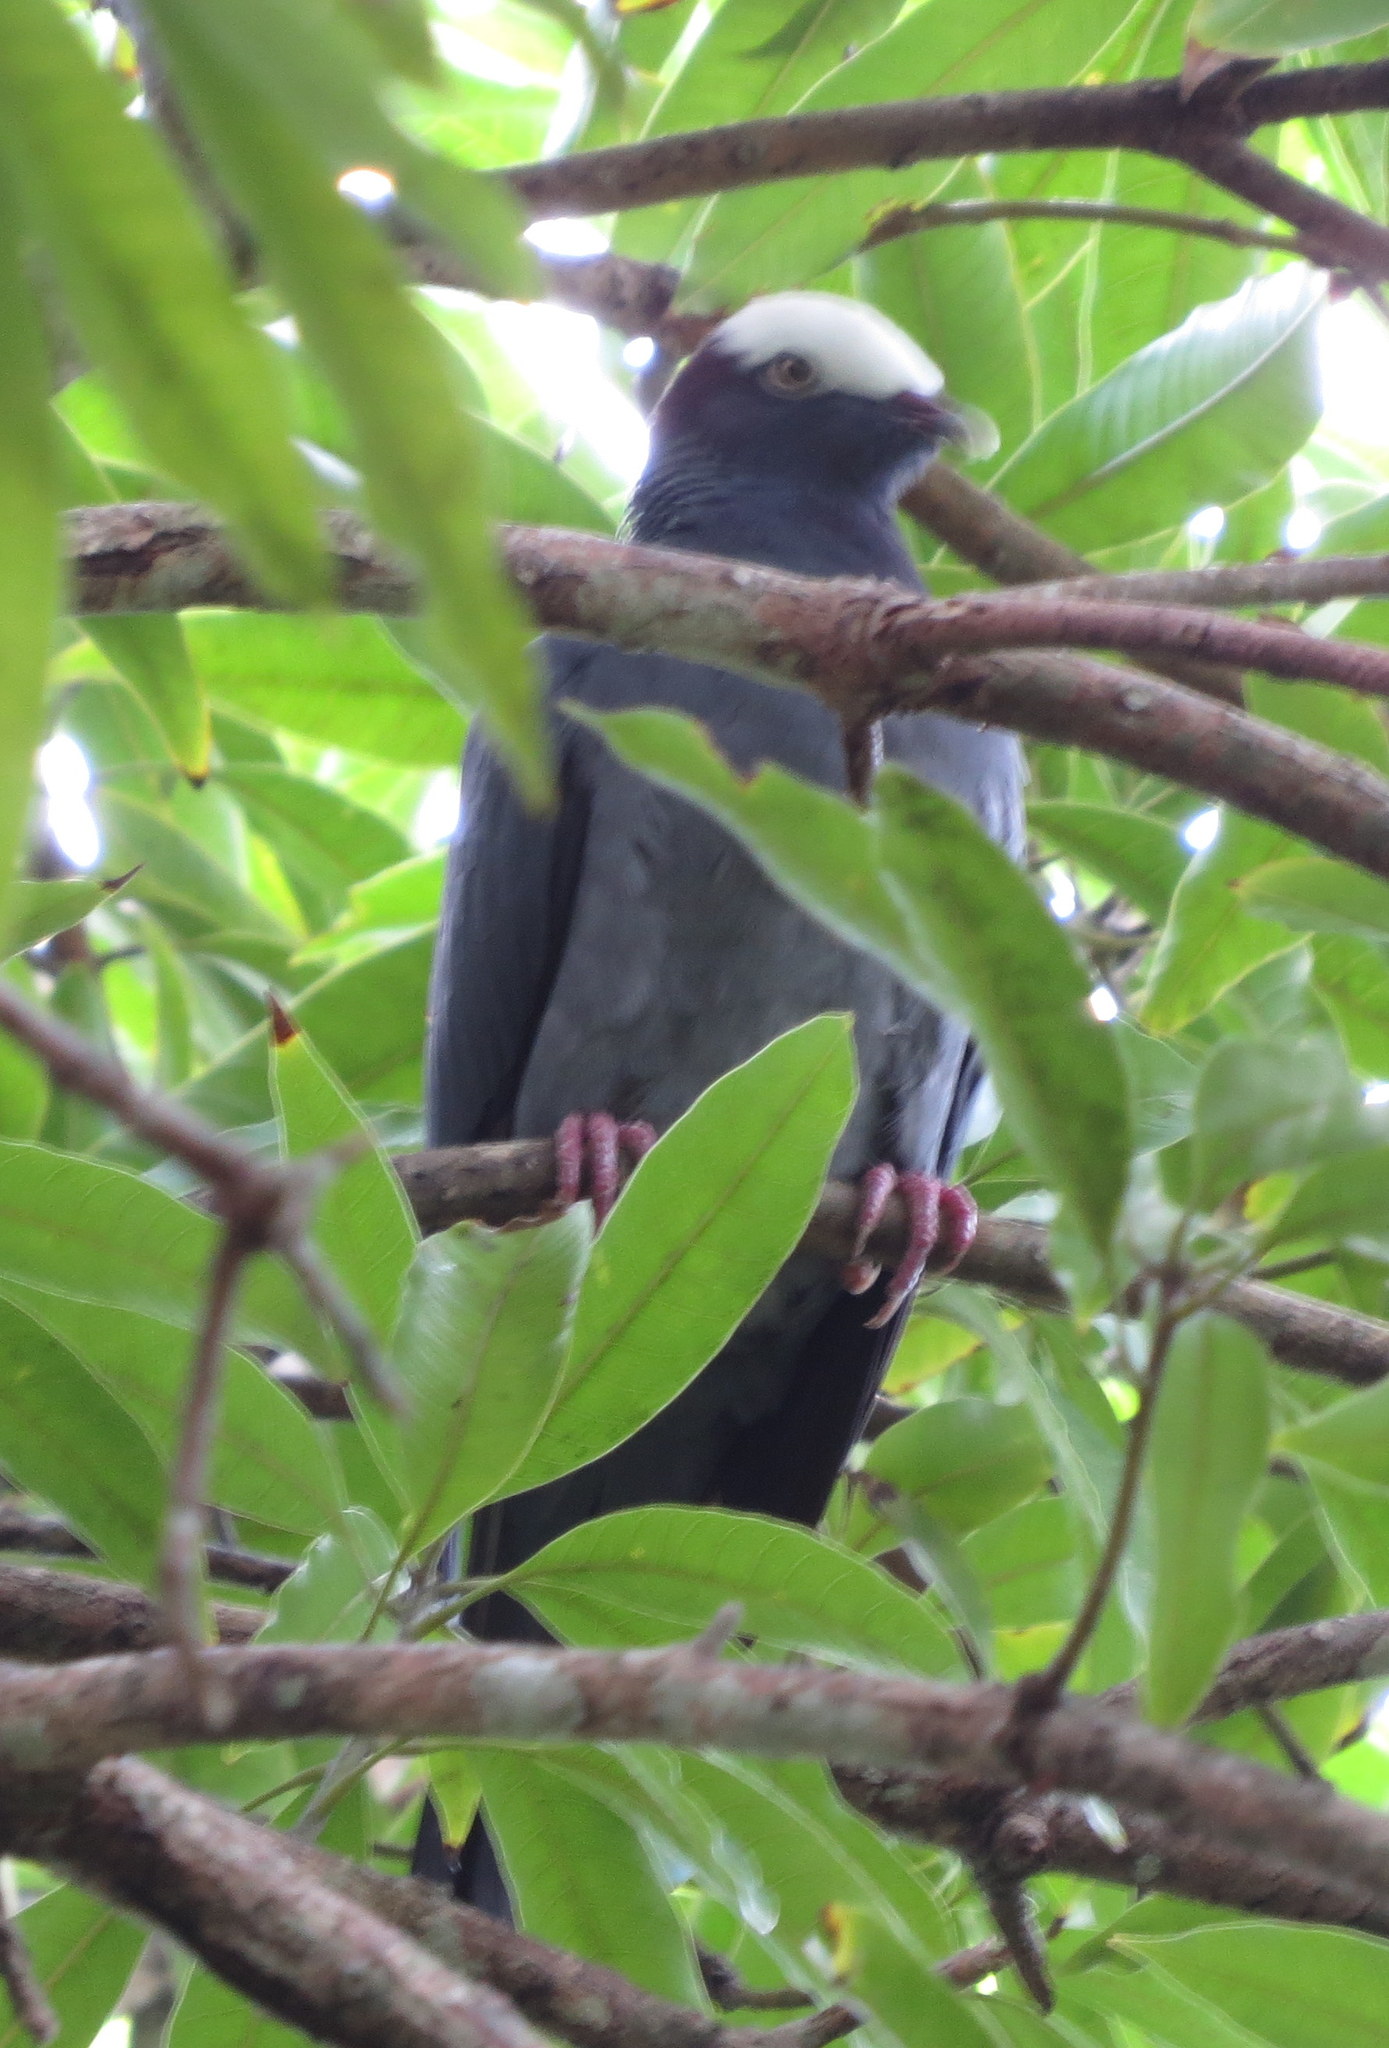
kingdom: Animalia
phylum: Chordata
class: Aves
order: Columbiformes
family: Columbidae
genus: Patagioenas
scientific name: Patagioenas leucocephala
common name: White-crowned pigeon
